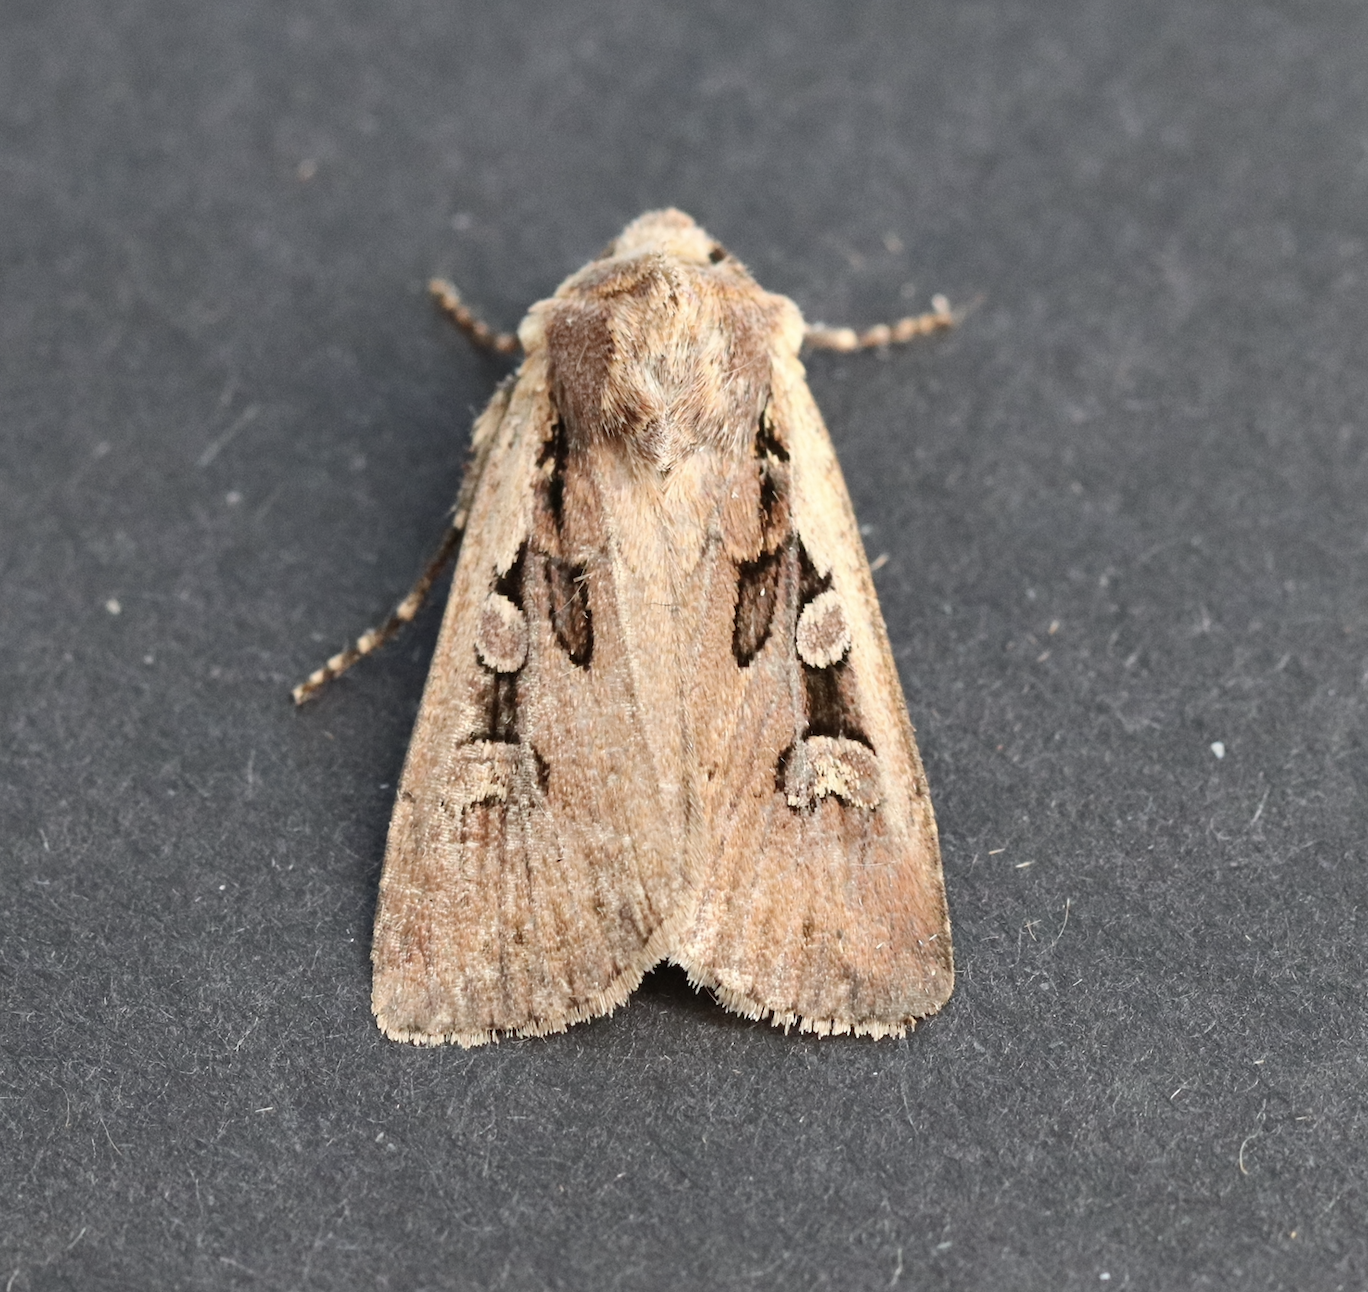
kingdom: Animalia
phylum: Arthropoda
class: Insecta
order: Lepidoptera
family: Noctuidae
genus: Euxoa
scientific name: Euxoa obelisca
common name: Square-spot dart
